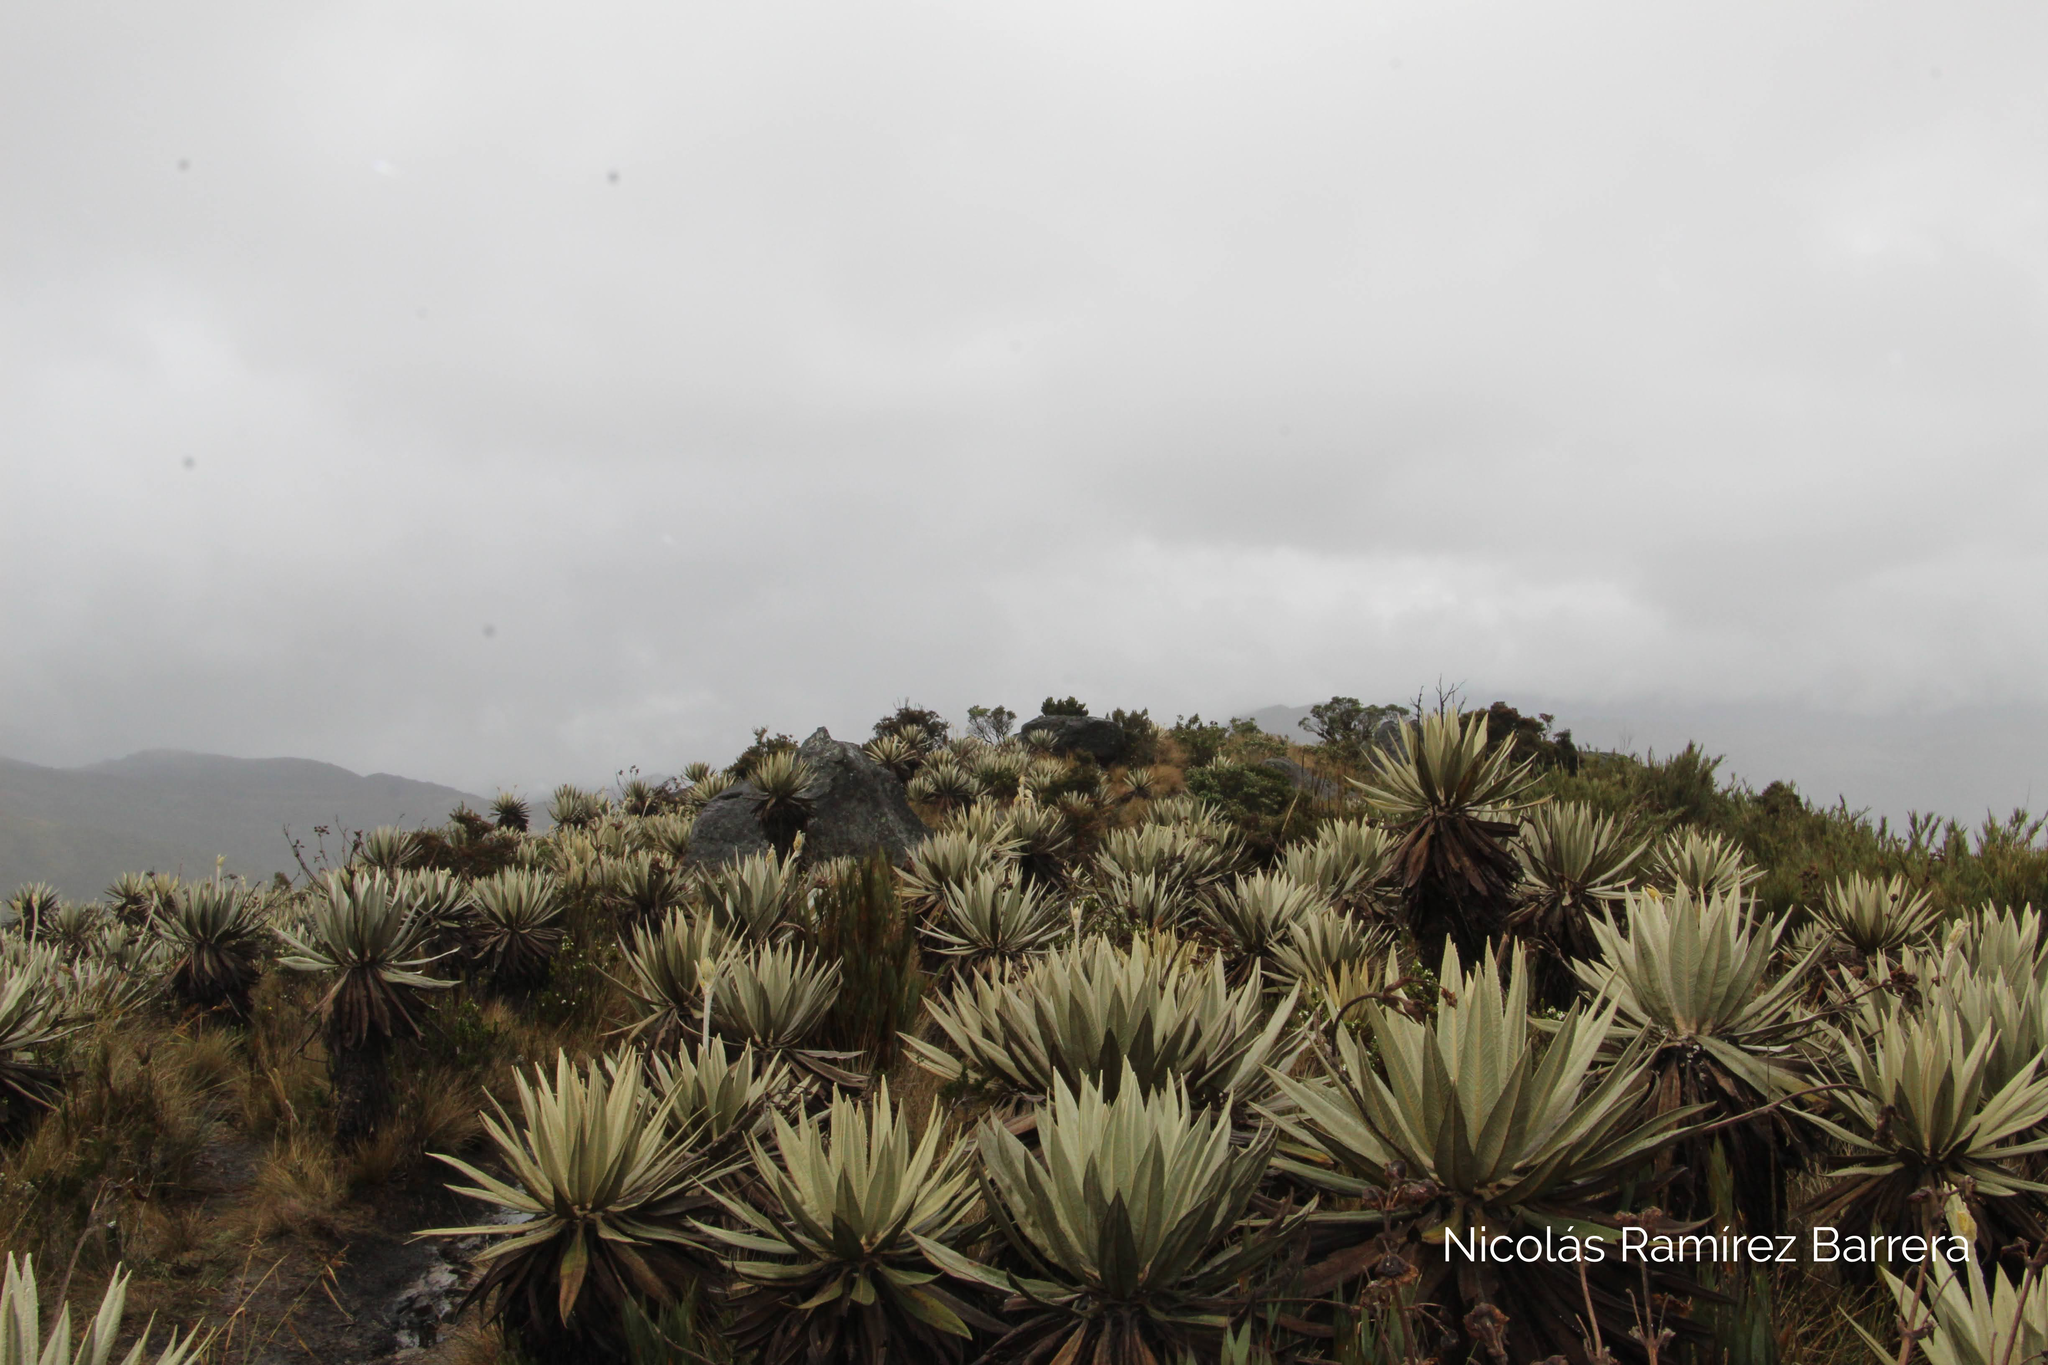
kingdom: Plantae
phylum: Tracheophyta
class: Magnoliopsida
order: Asterales
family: Asteraceae
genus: Espeletia
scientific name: Espeletia grandiflora
